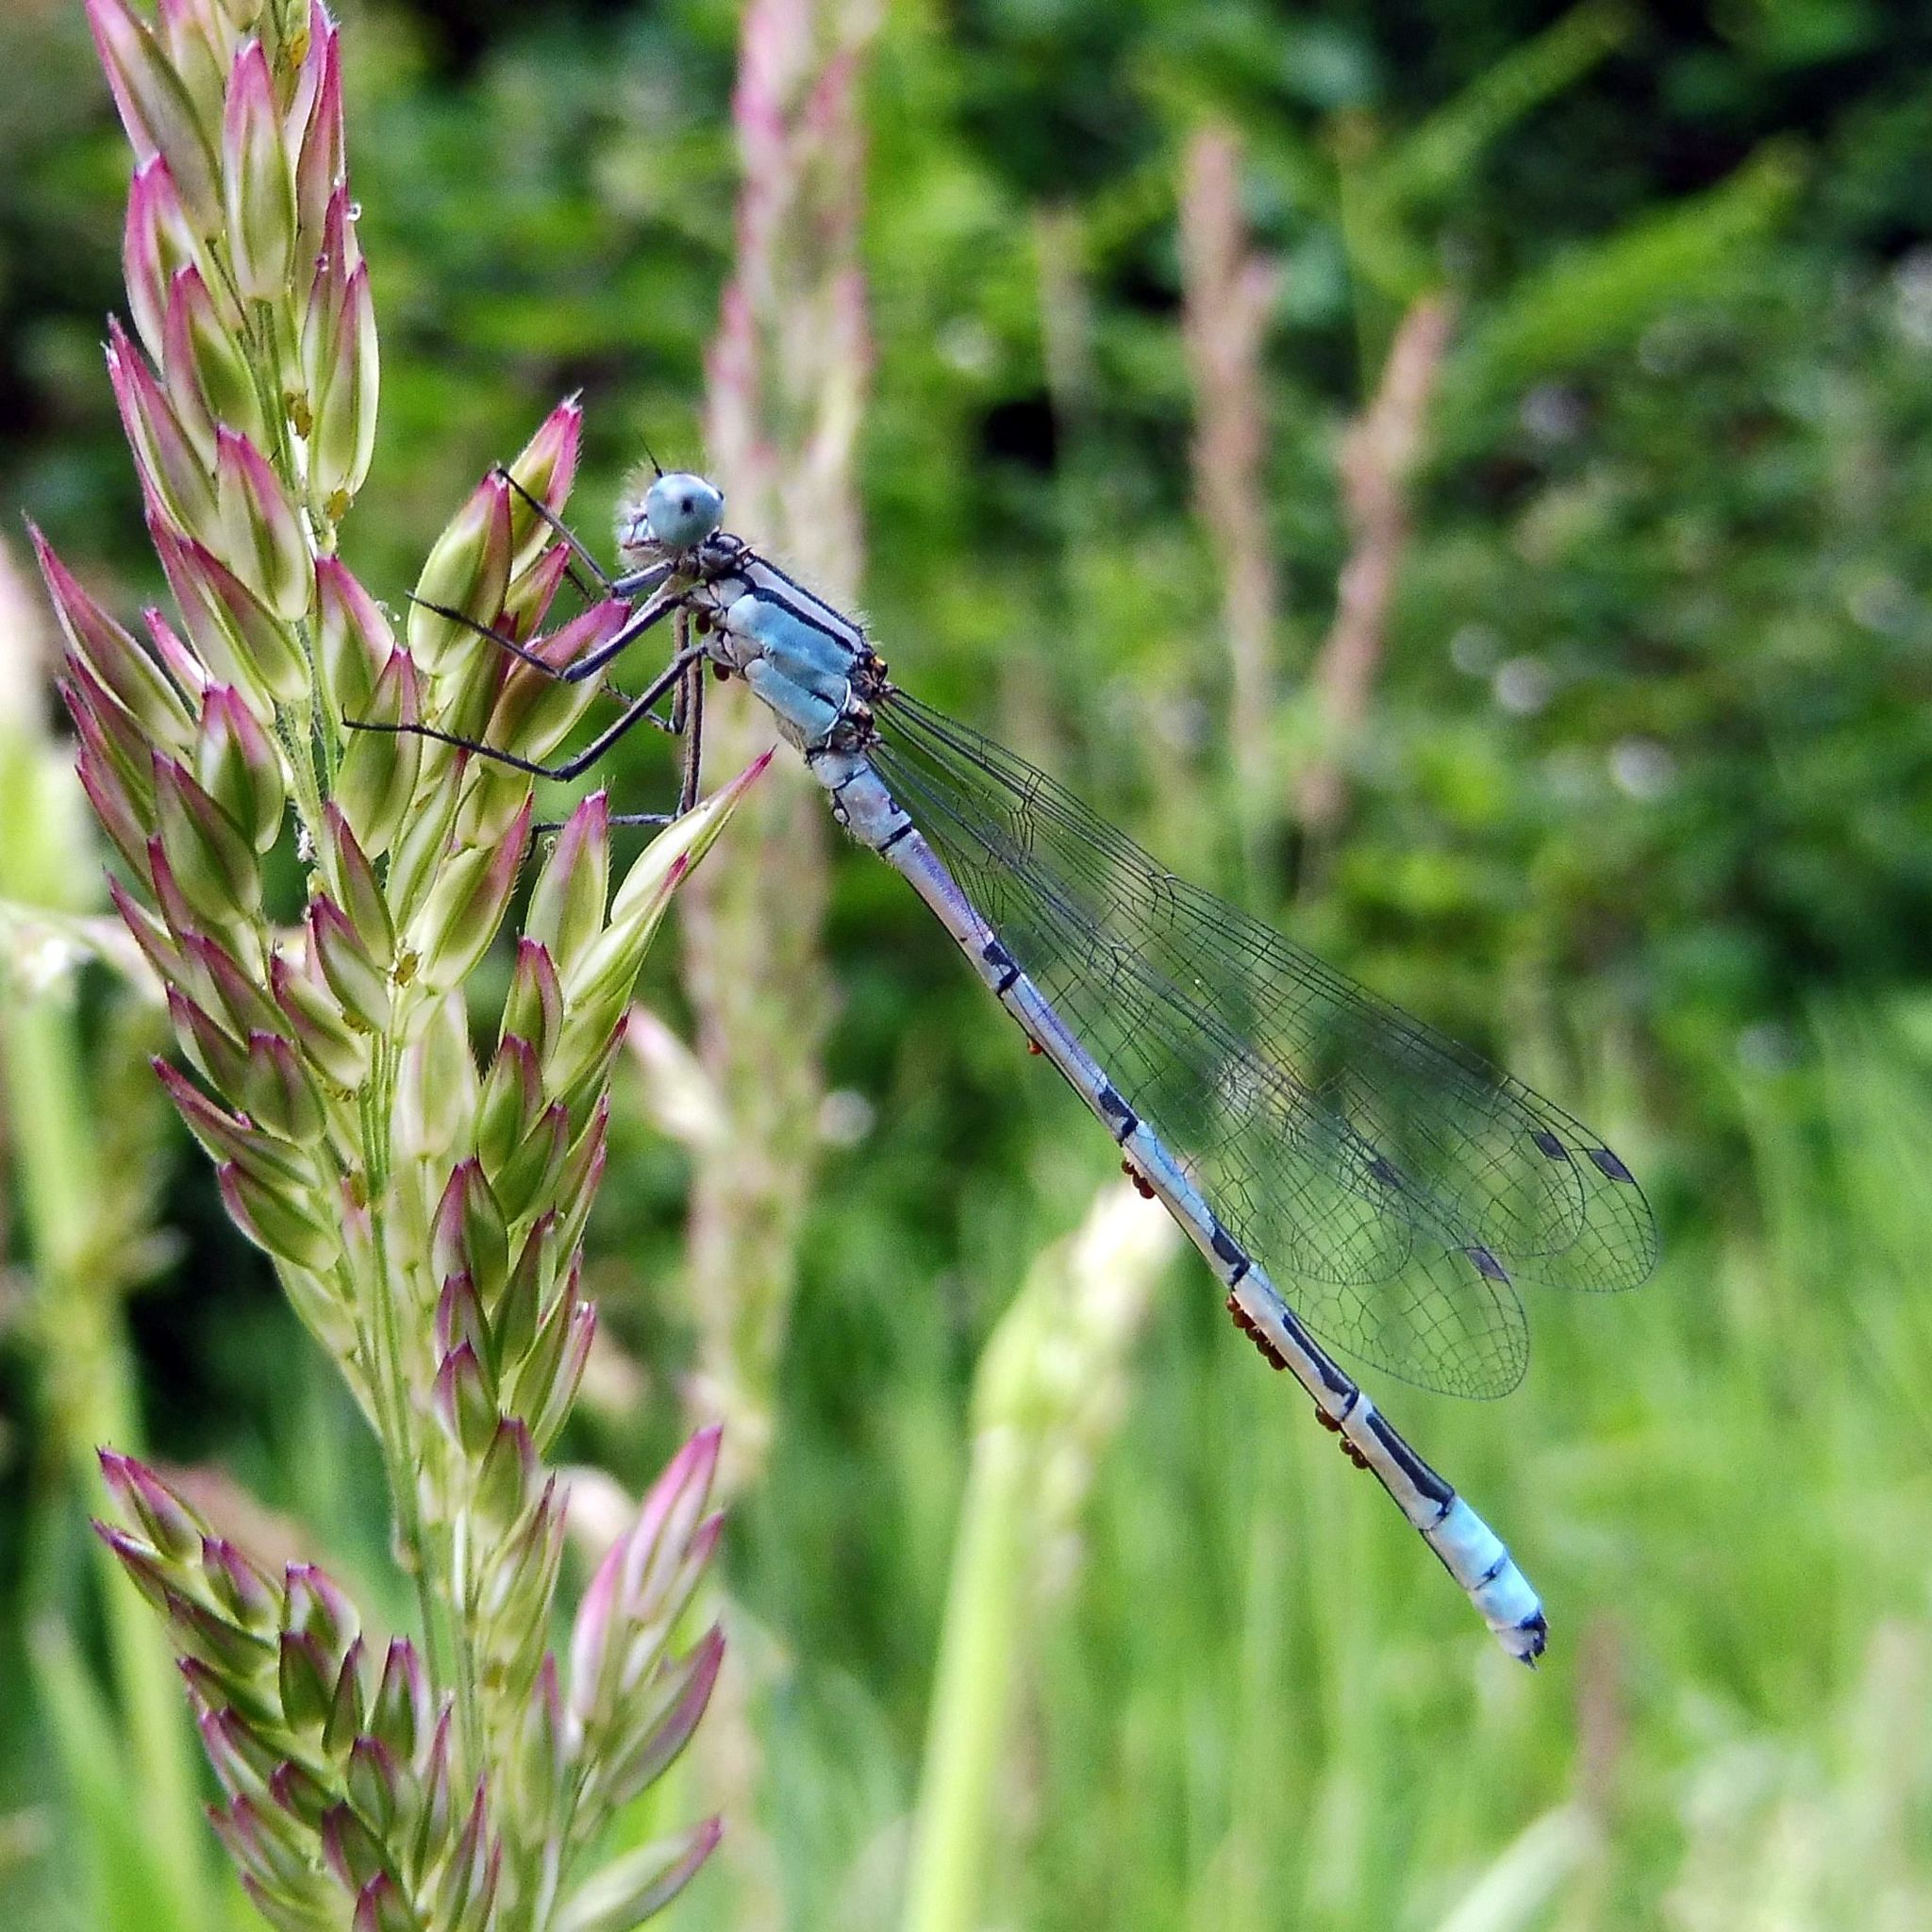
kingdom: Animalia
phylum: Arthropoda
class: Insecta
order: Odonata
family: Coenagrionidae
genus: Enallagma
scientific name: Enallagma cyathigerum
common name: Common blue damselfly
